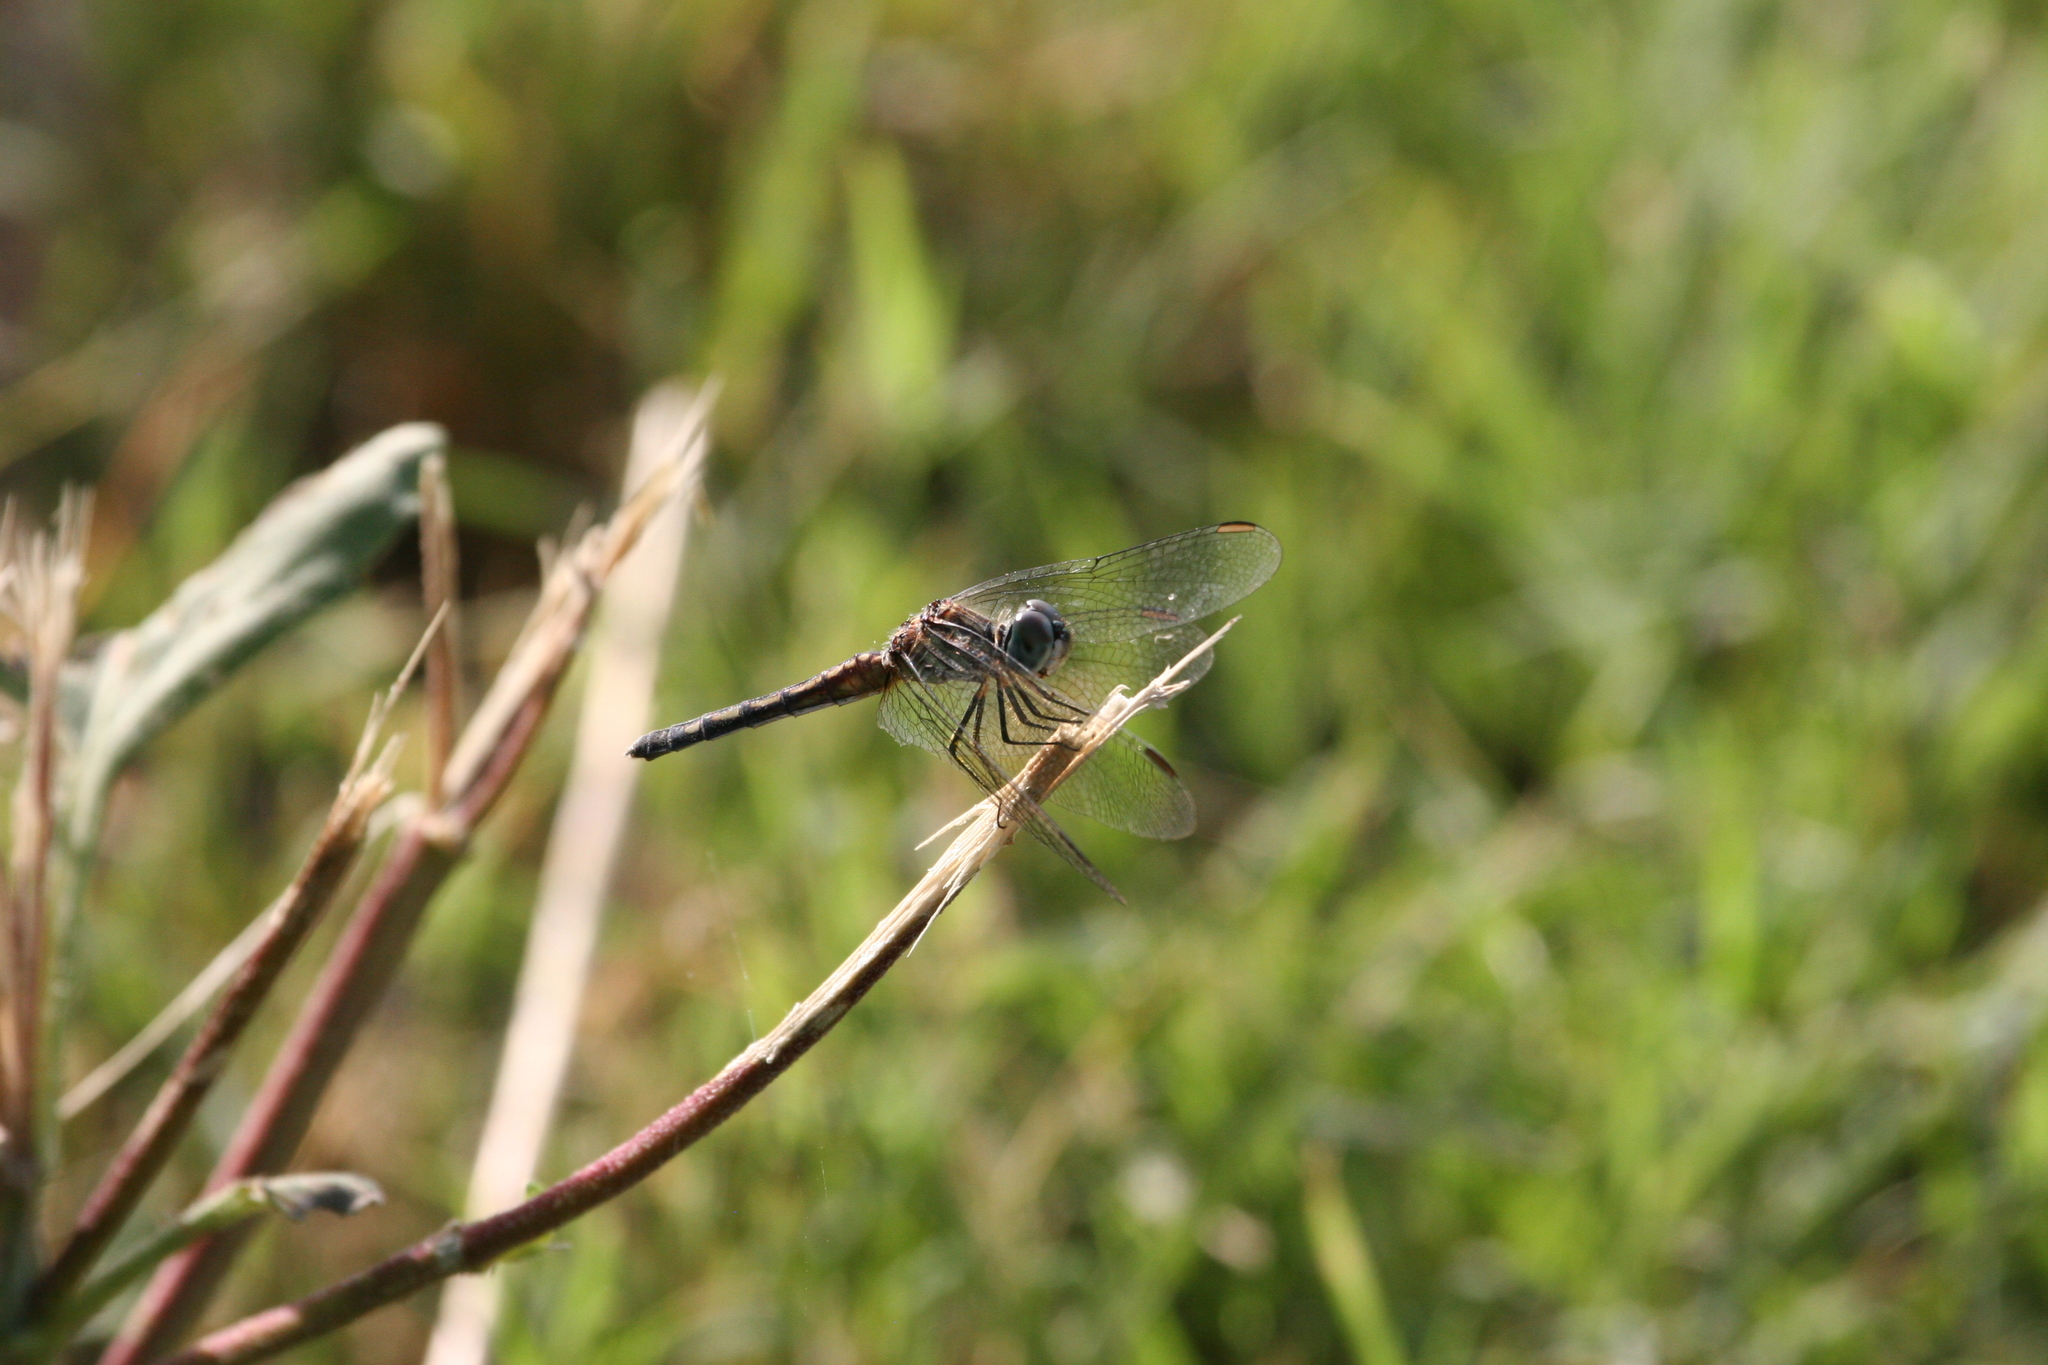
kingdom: Animalia
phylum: Arthropoda
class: Insecta
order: Odonata
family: Libellulidae
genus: Pachydiplax
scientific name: Pachydiplax longipennis
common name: Blue dasher
